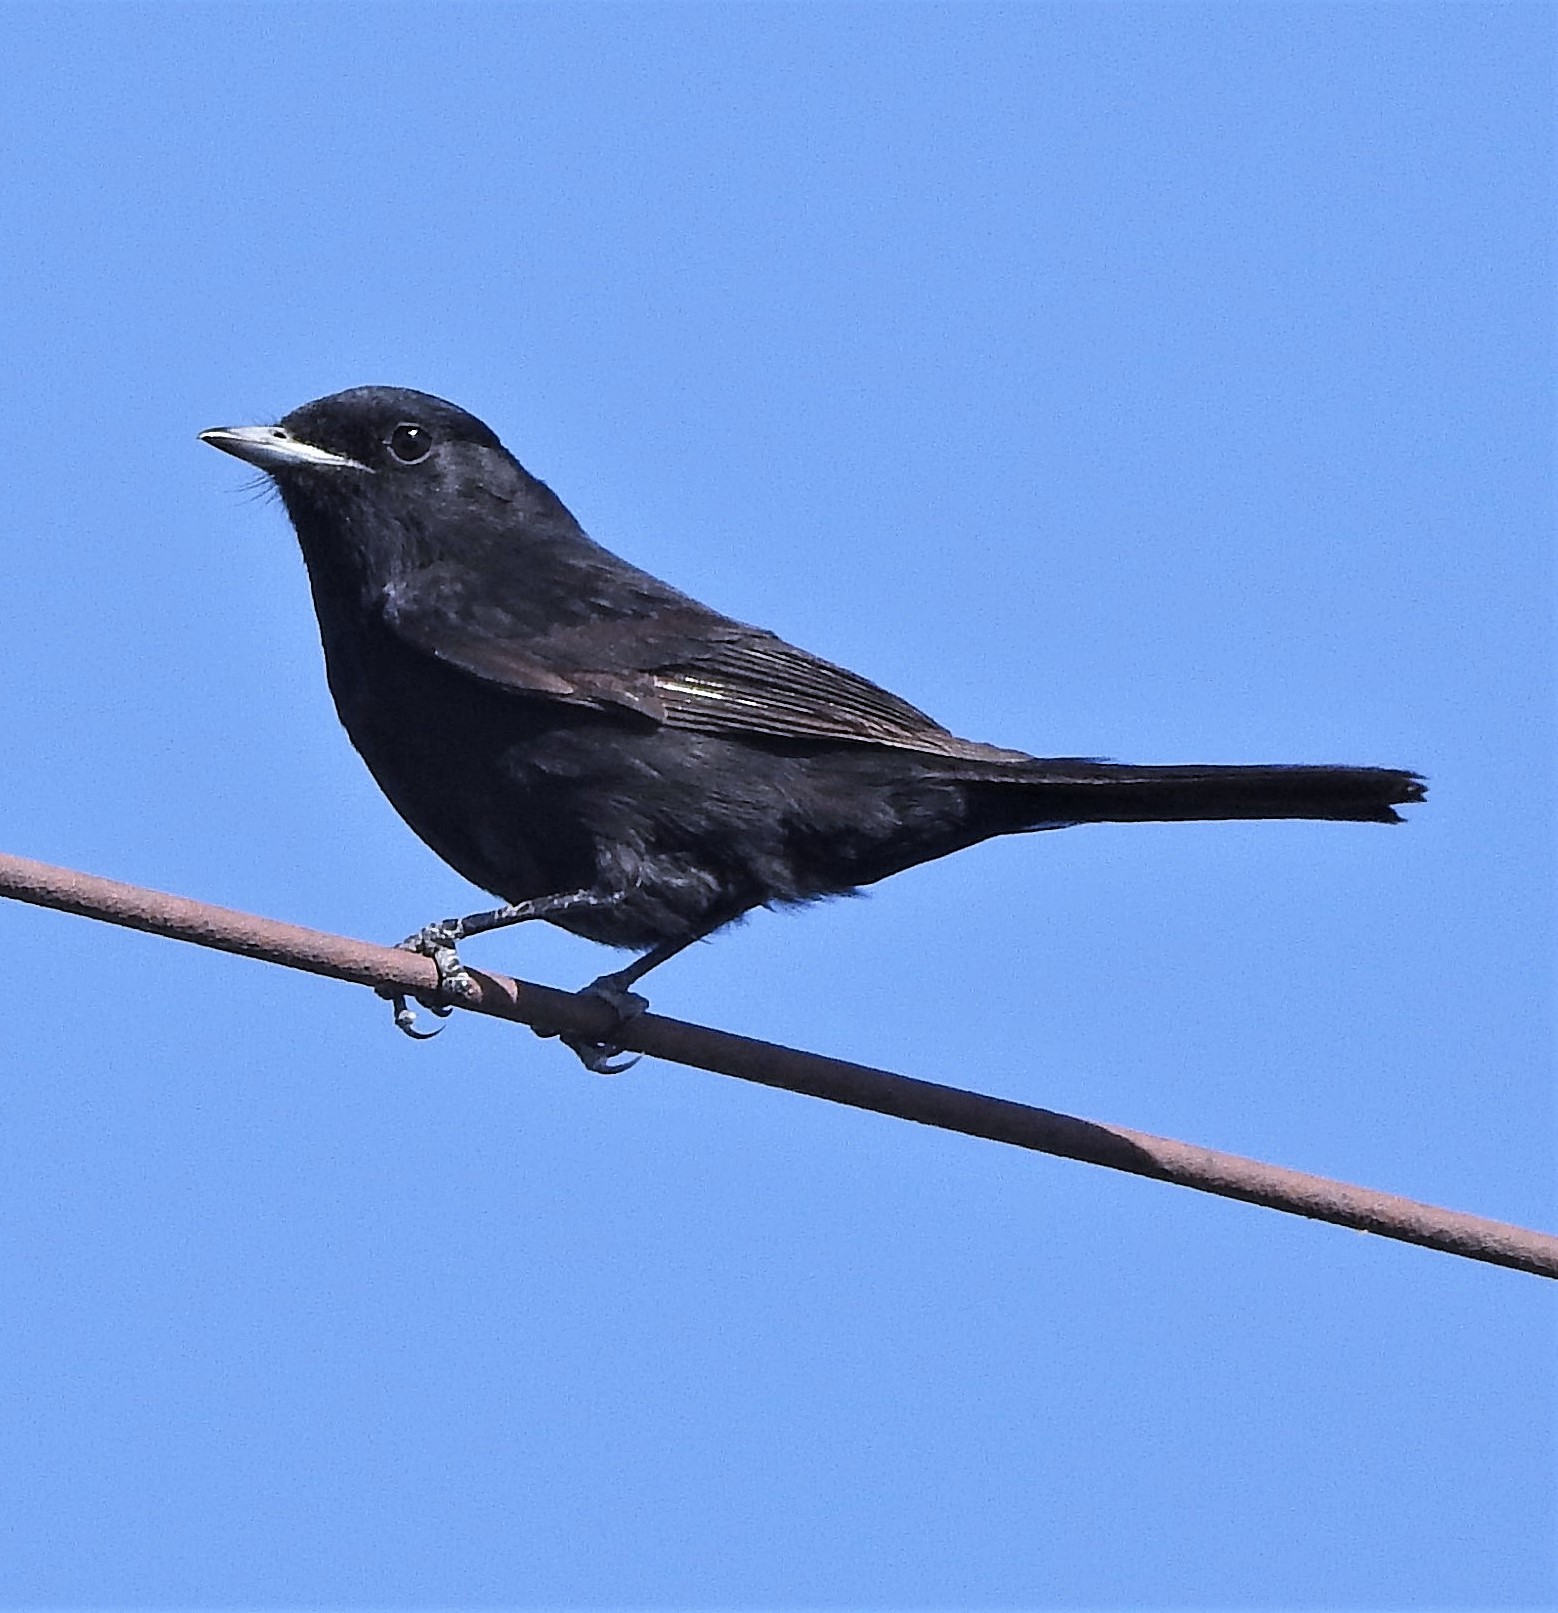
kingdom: Animalia
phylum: Chordata
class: Aves
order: Passeriformes
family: Tyrannidae
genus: Knipolegus
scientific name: Knipolegus hudsoni
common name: Hudson's black tyrant
